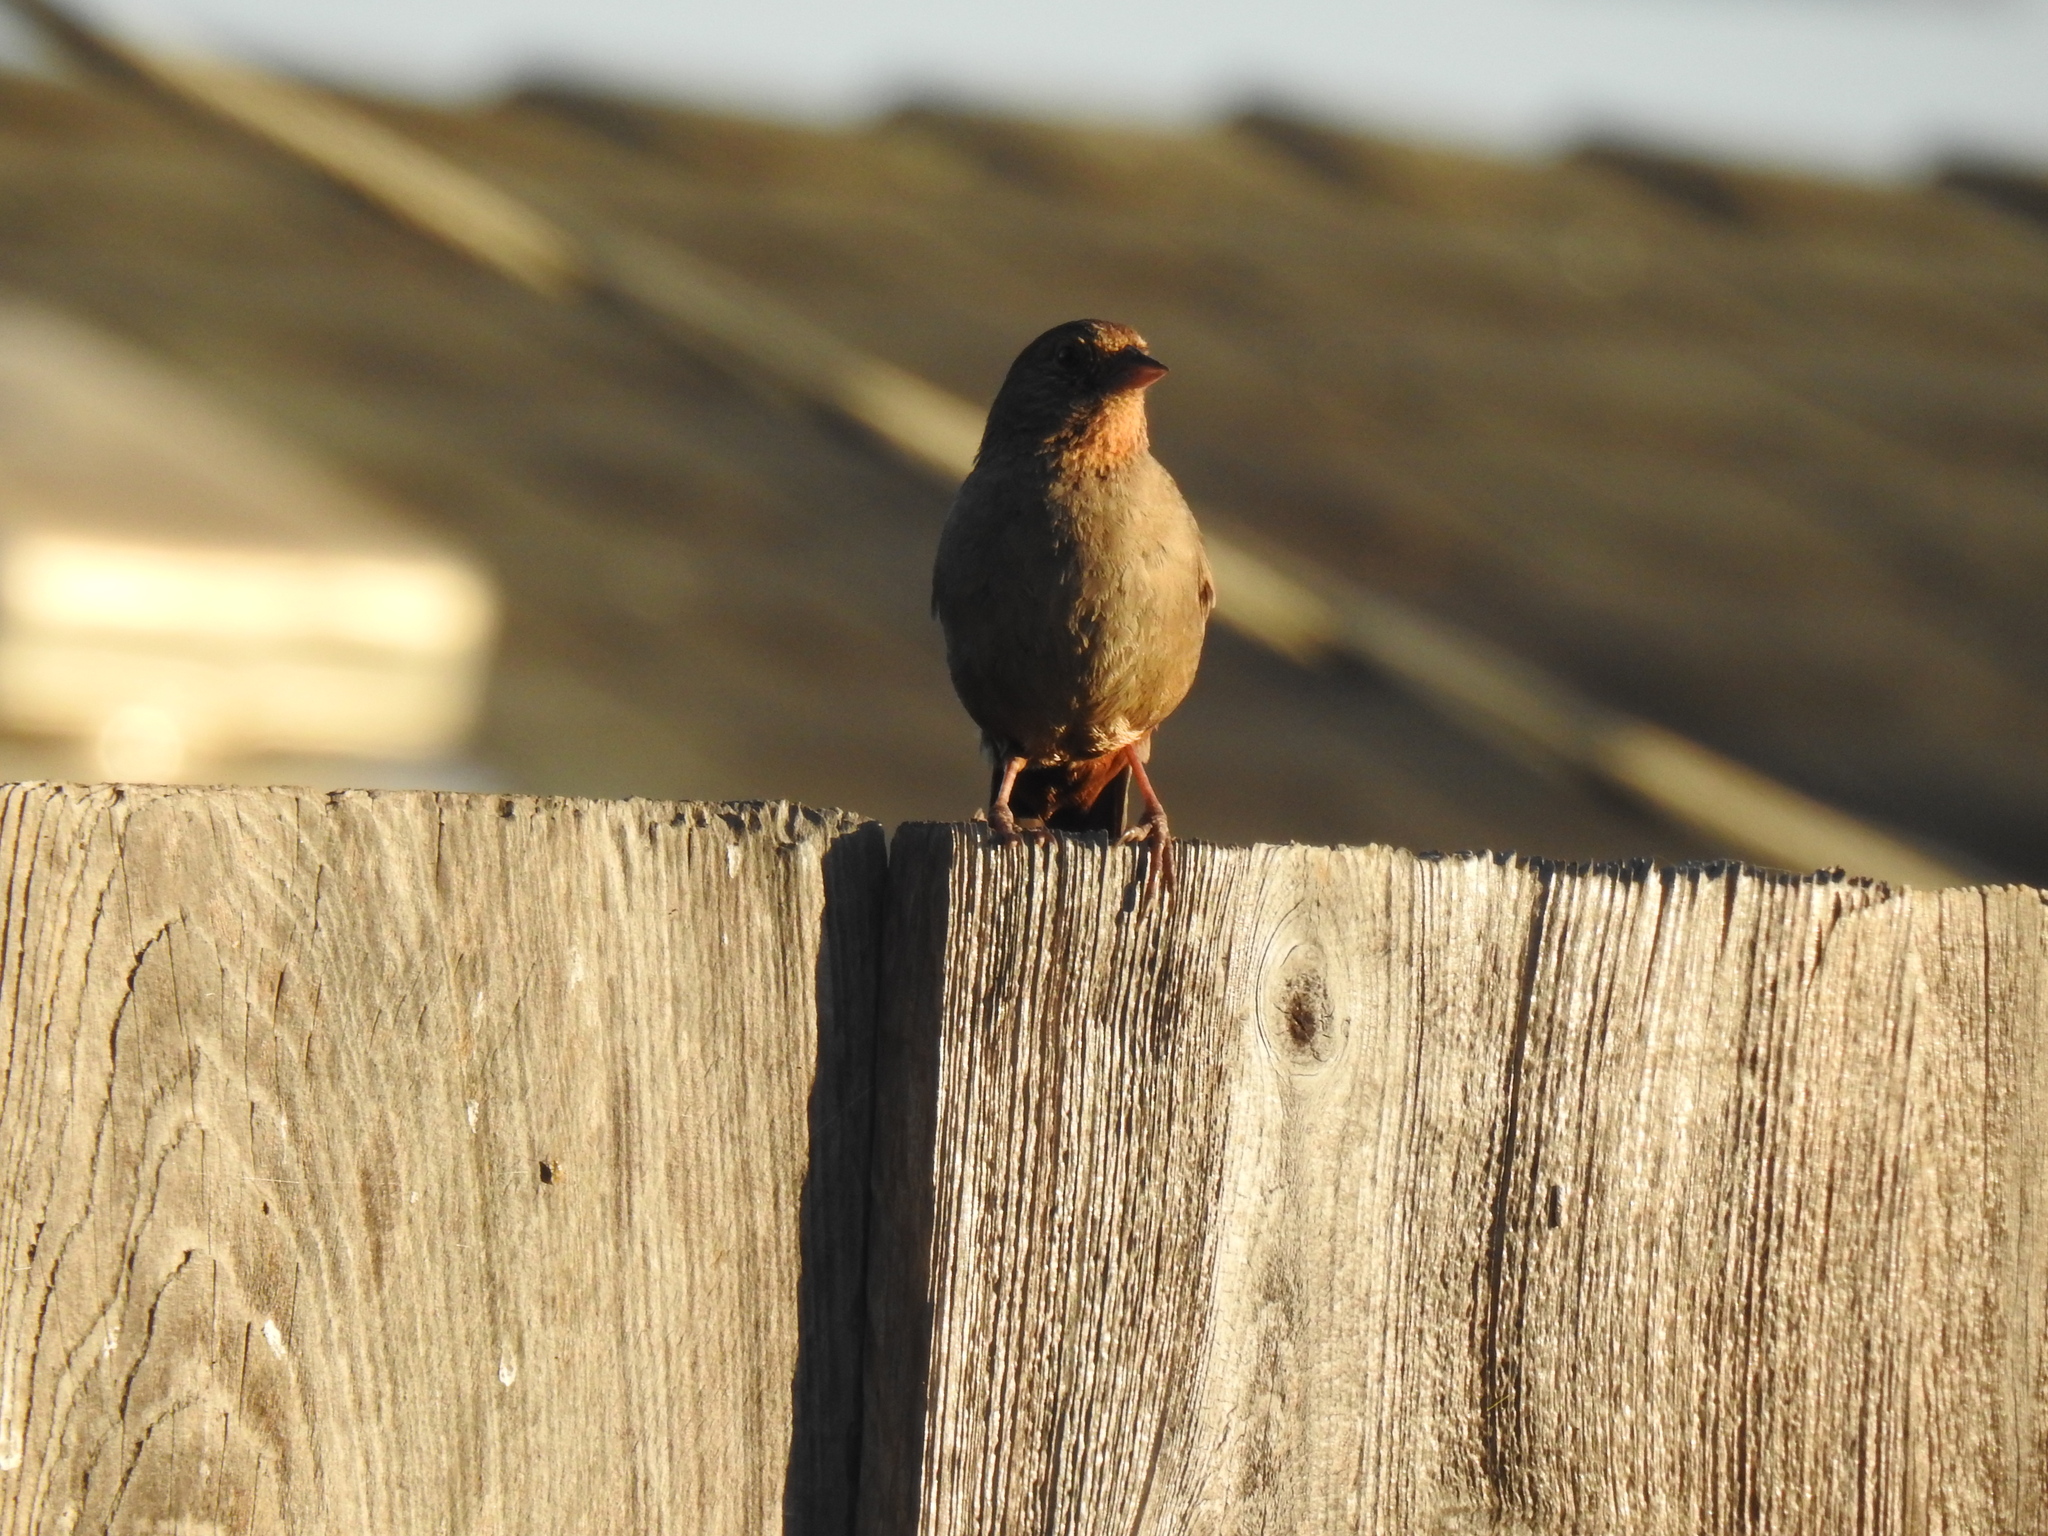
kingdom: Animalia
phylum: Chordata
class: Aves
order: Passeriformes
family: Passerellidae
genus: Melozone
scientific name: Melozone crissalis
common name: California towhee
